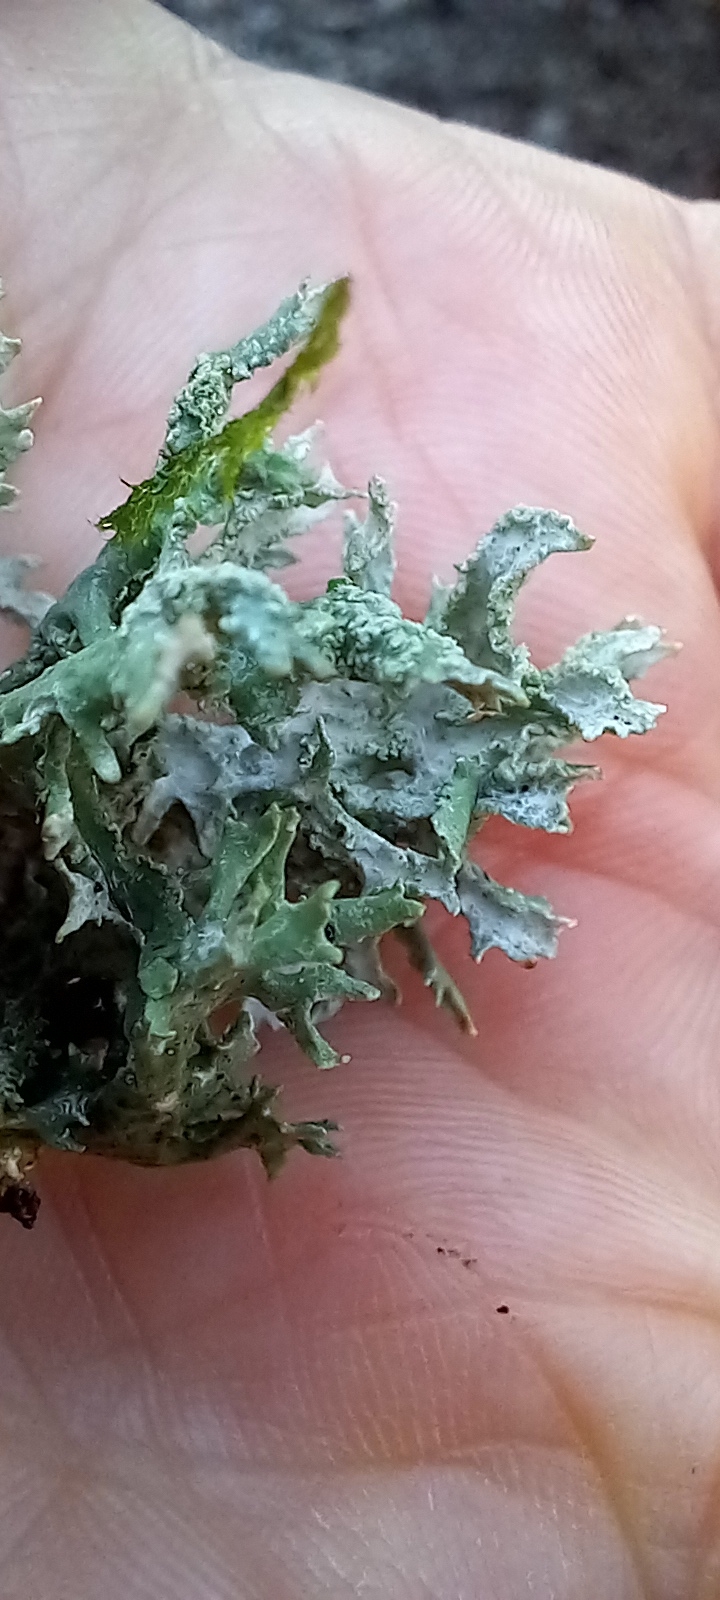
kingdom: Fungi
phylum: Ascomycota
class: Lecanoromycetes
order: Lecanorales
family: Parmeliaceae
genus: Evernia
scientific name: Evernia prunastri
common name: Oak moss
